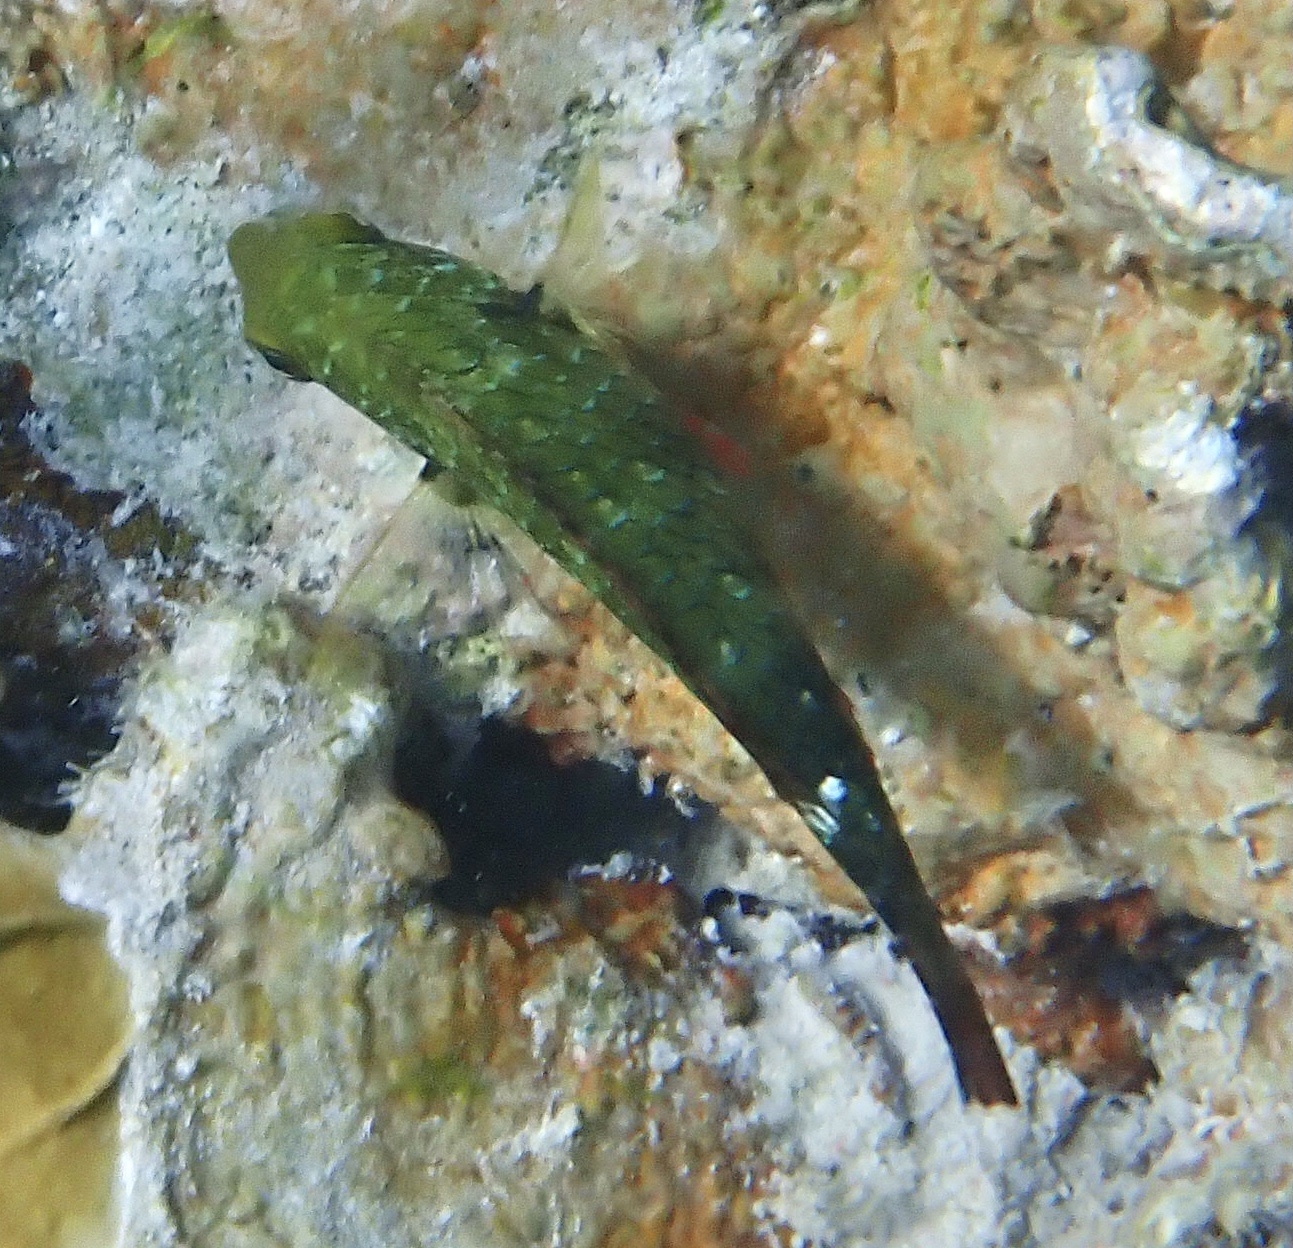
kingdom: Animalia
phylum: Chordata
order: Perciformes
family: Scaridae
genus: Sparisoma
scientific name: Sparisoma aurofrenatum
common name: Redband parrotfish
